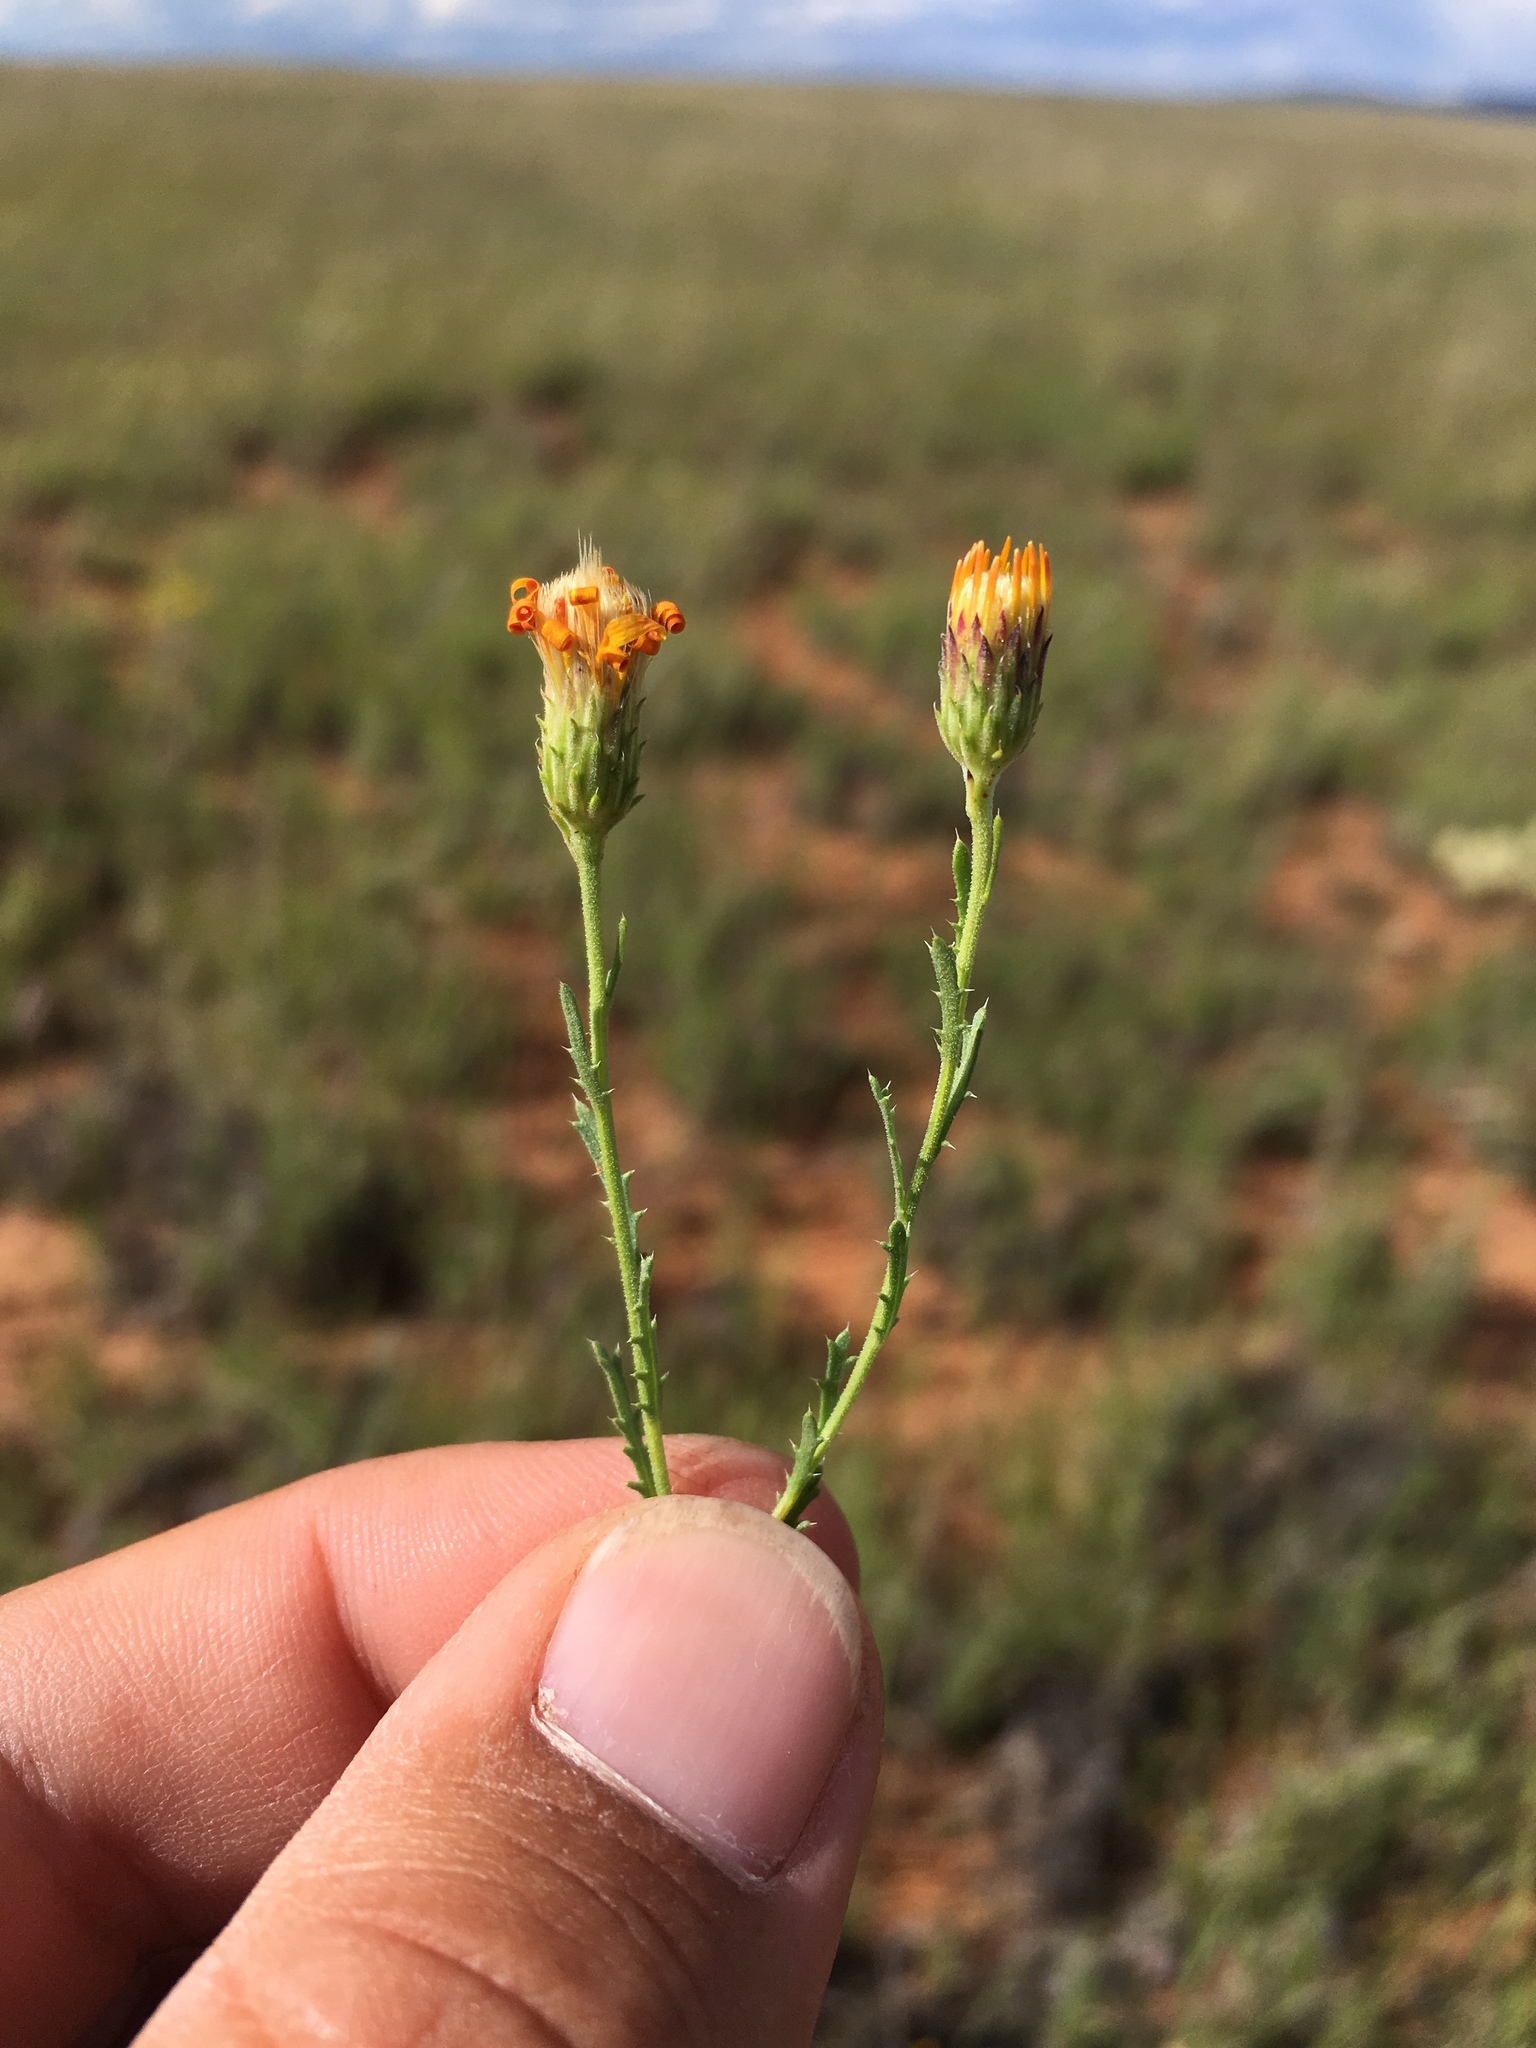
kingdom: Plantae
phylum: Tracheophyta
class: Magnoliopsida
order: Asterales
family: Asteraceae
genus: Xanthisma
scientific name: Xanthisma spinulosum
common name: Spiny goldenweed
